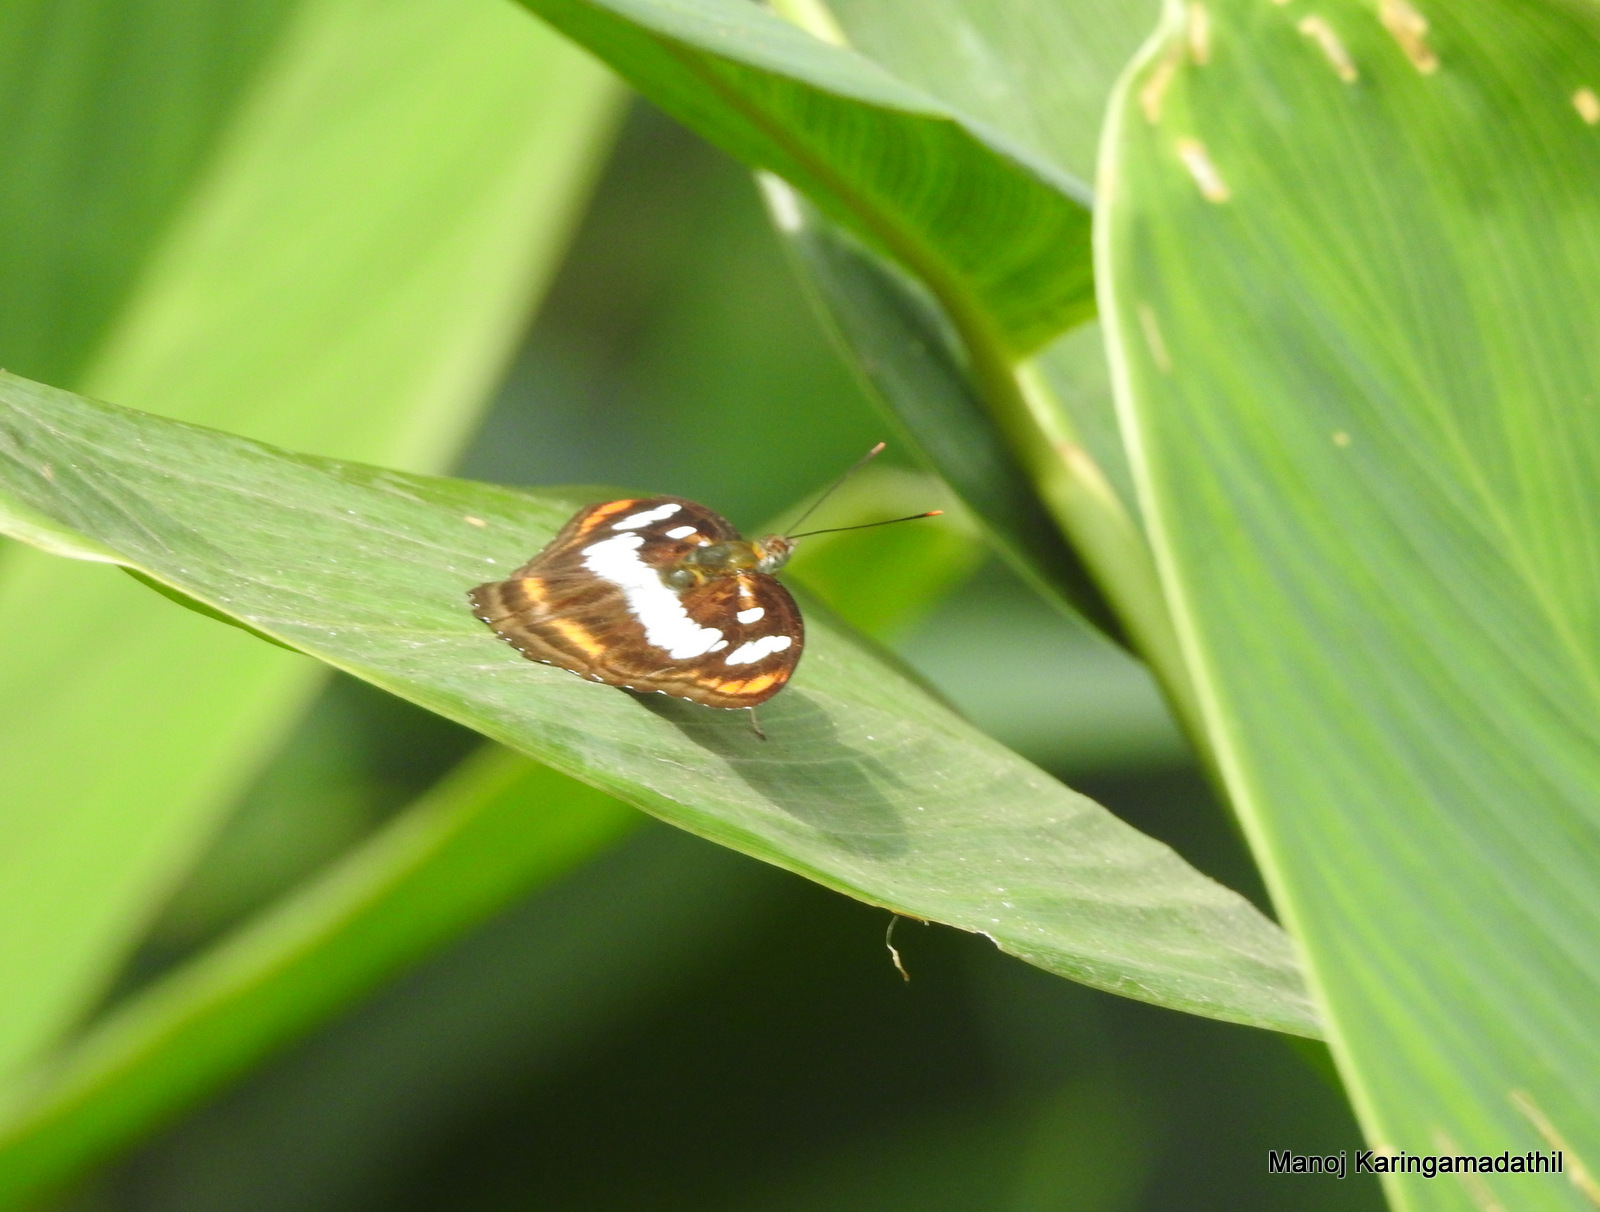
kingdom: Animalia
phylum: Arthropoda
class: Insecta
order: Lepidoptera
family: Nymphalidae
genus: Parathyma
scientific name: Parathyma nefte
